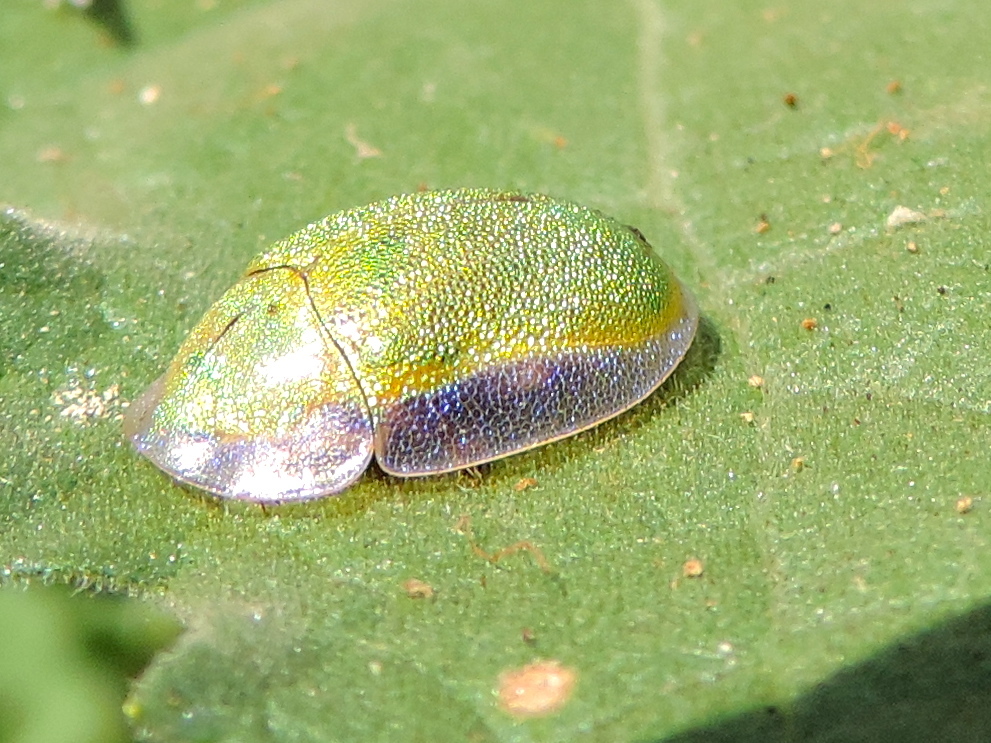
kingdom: Animalia
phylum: Arthropoda
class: Insecta
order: Coleoptera
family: Chrysomelidae
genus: Physonota
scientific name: Physonota arizonae
